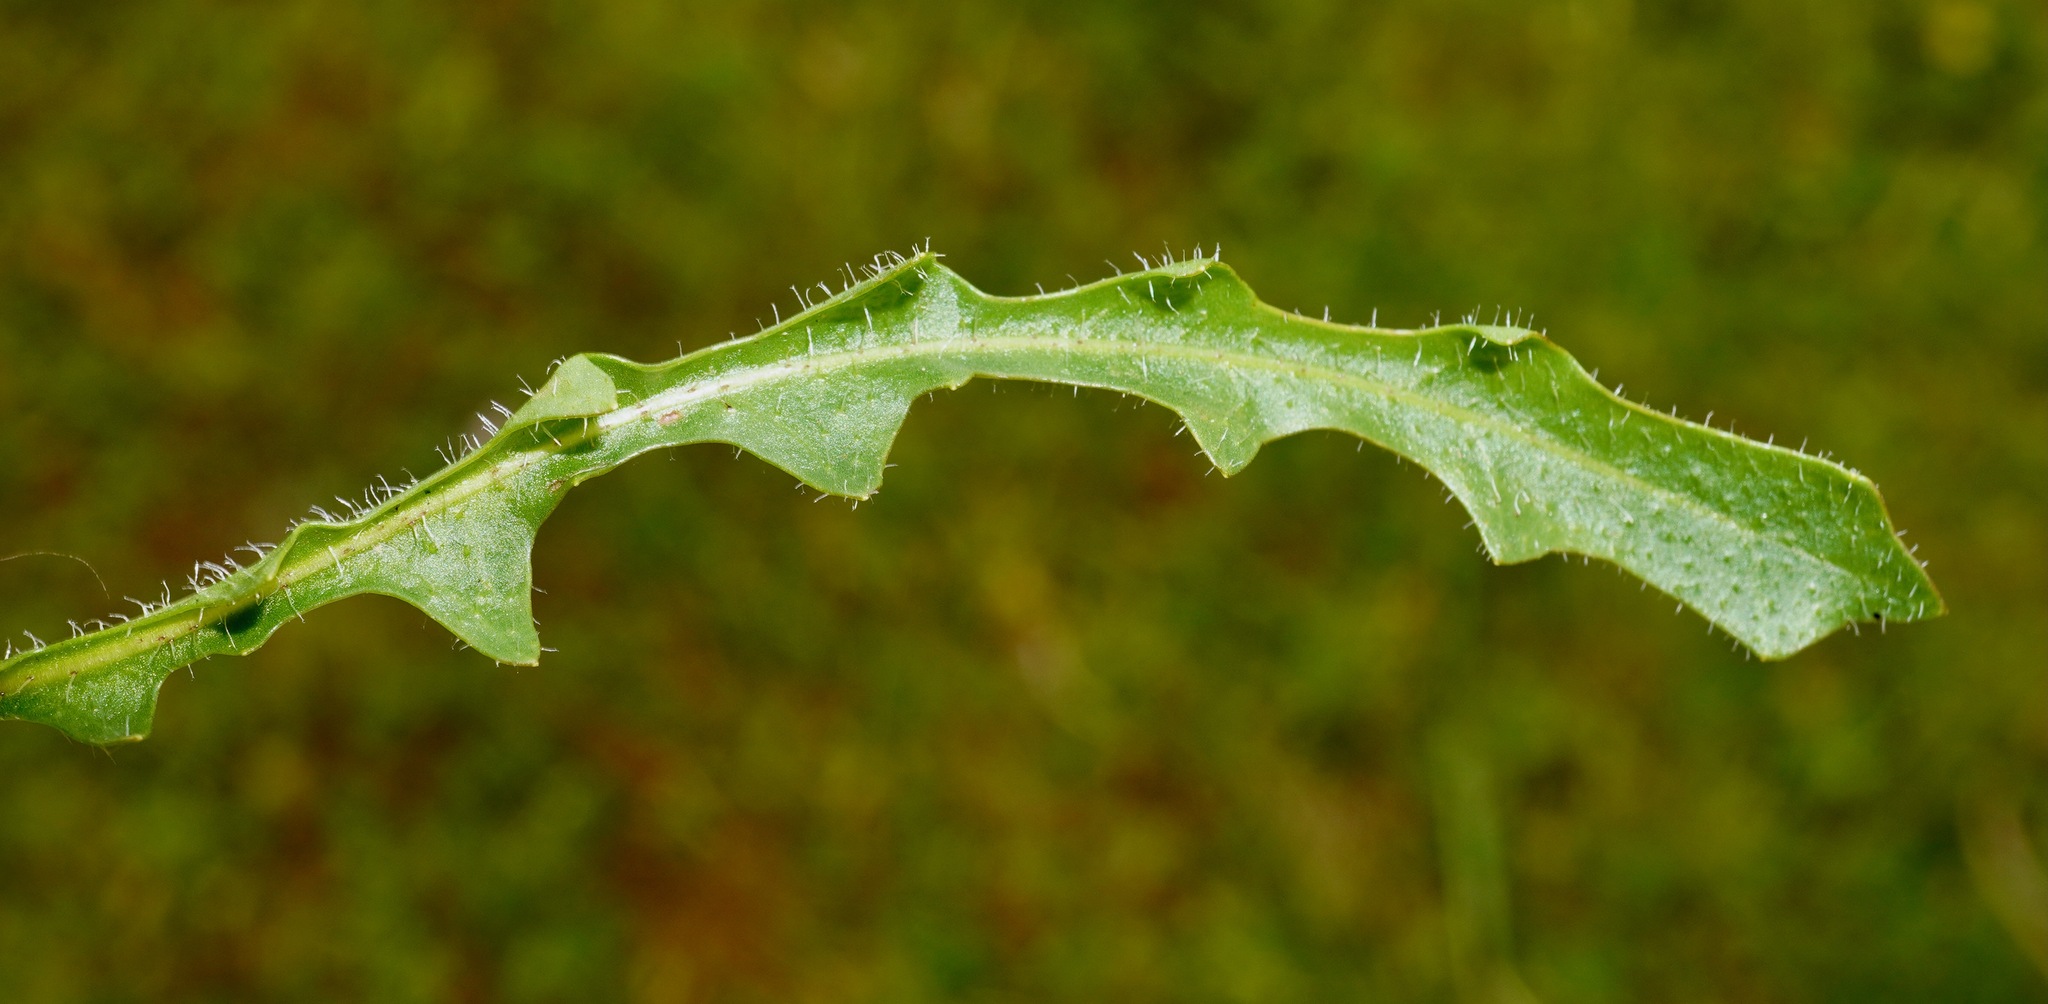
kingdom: Plantae
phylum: Tracheophyta
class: Magnoliopsida
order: Asterales
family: Asteraceae
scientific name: Asteraceae
